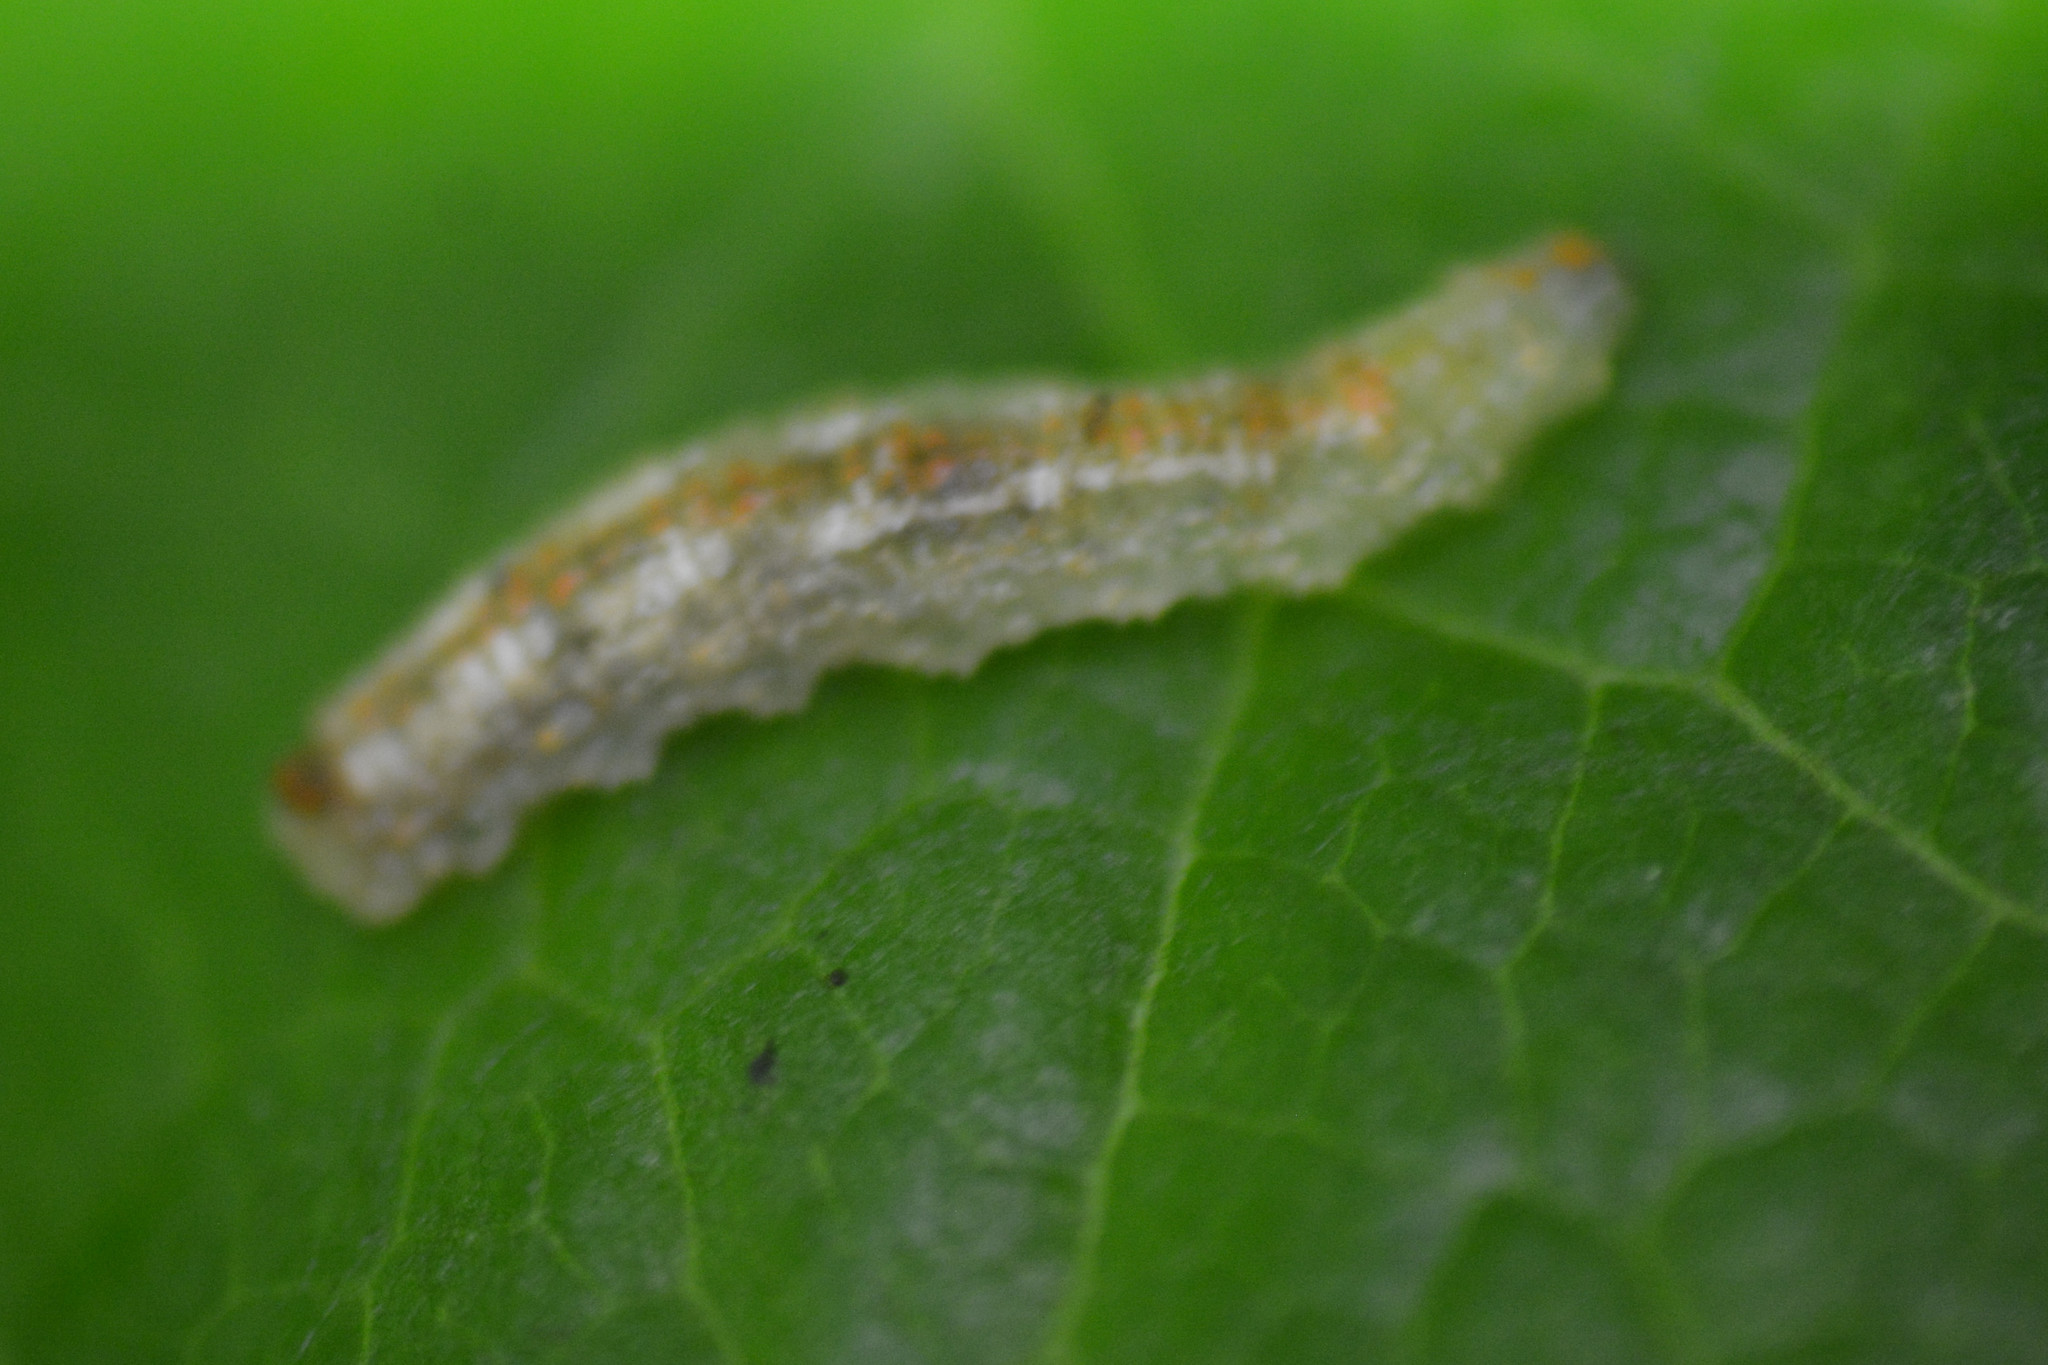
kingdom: Animalia
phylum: Arthropoda
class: Insecta
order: Diptera
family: Syrphidae
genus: Syrphus
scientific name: Syrphus
